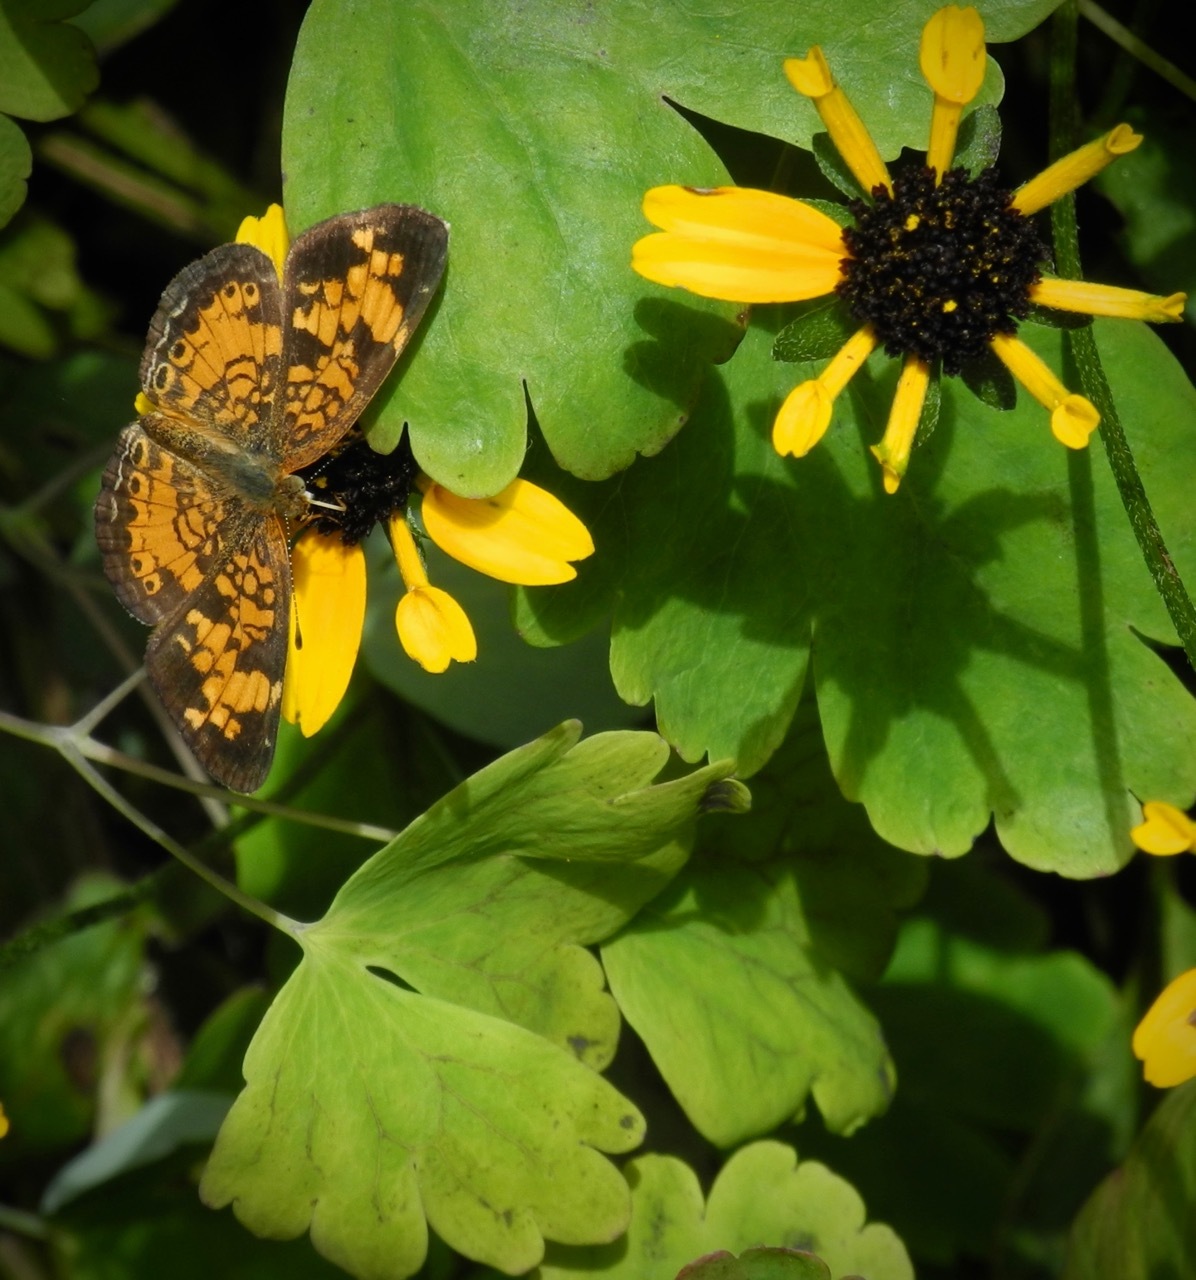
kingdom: Animalia
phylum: Arthropoda
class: Insecta
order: Lepidoptera
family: Nymphalidae
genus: Phyciodes
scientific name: Phyciodes tharos
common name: Pearl crescent
